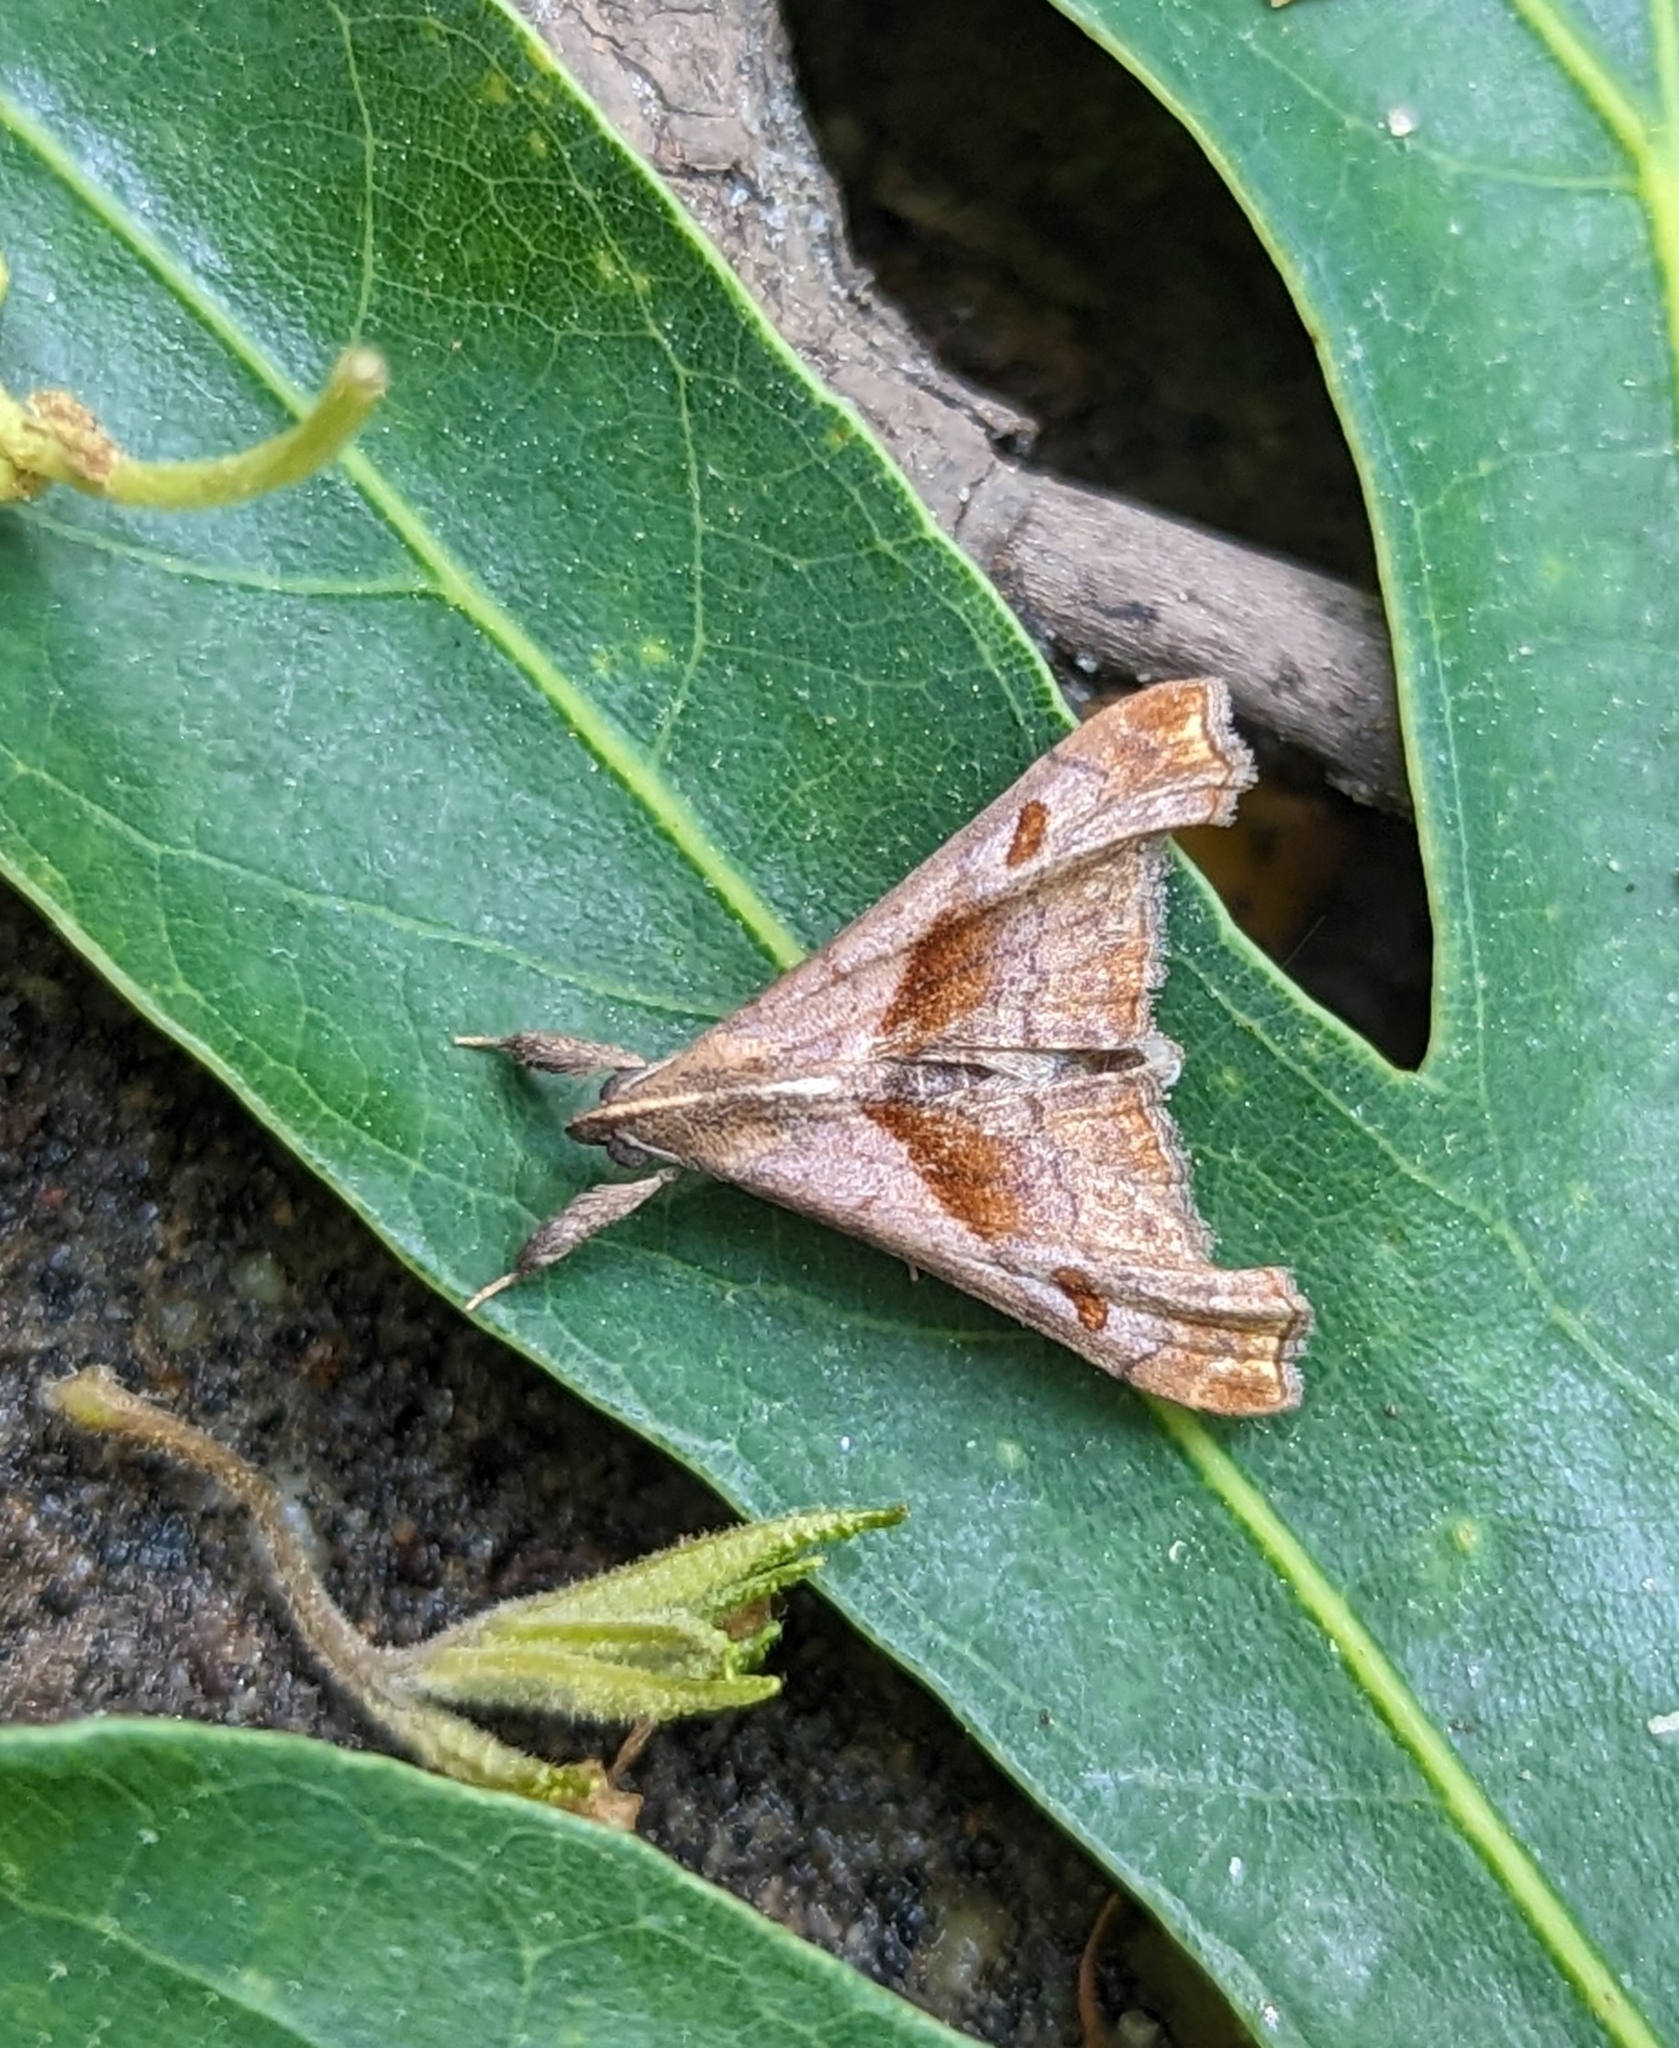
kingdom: Animalia
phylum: Arthropoda
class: Insecta
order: Lepidoptera
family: Erebidae
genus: Palthis
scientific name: Palthis angulalis
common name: Dark-spotted palthis moth
